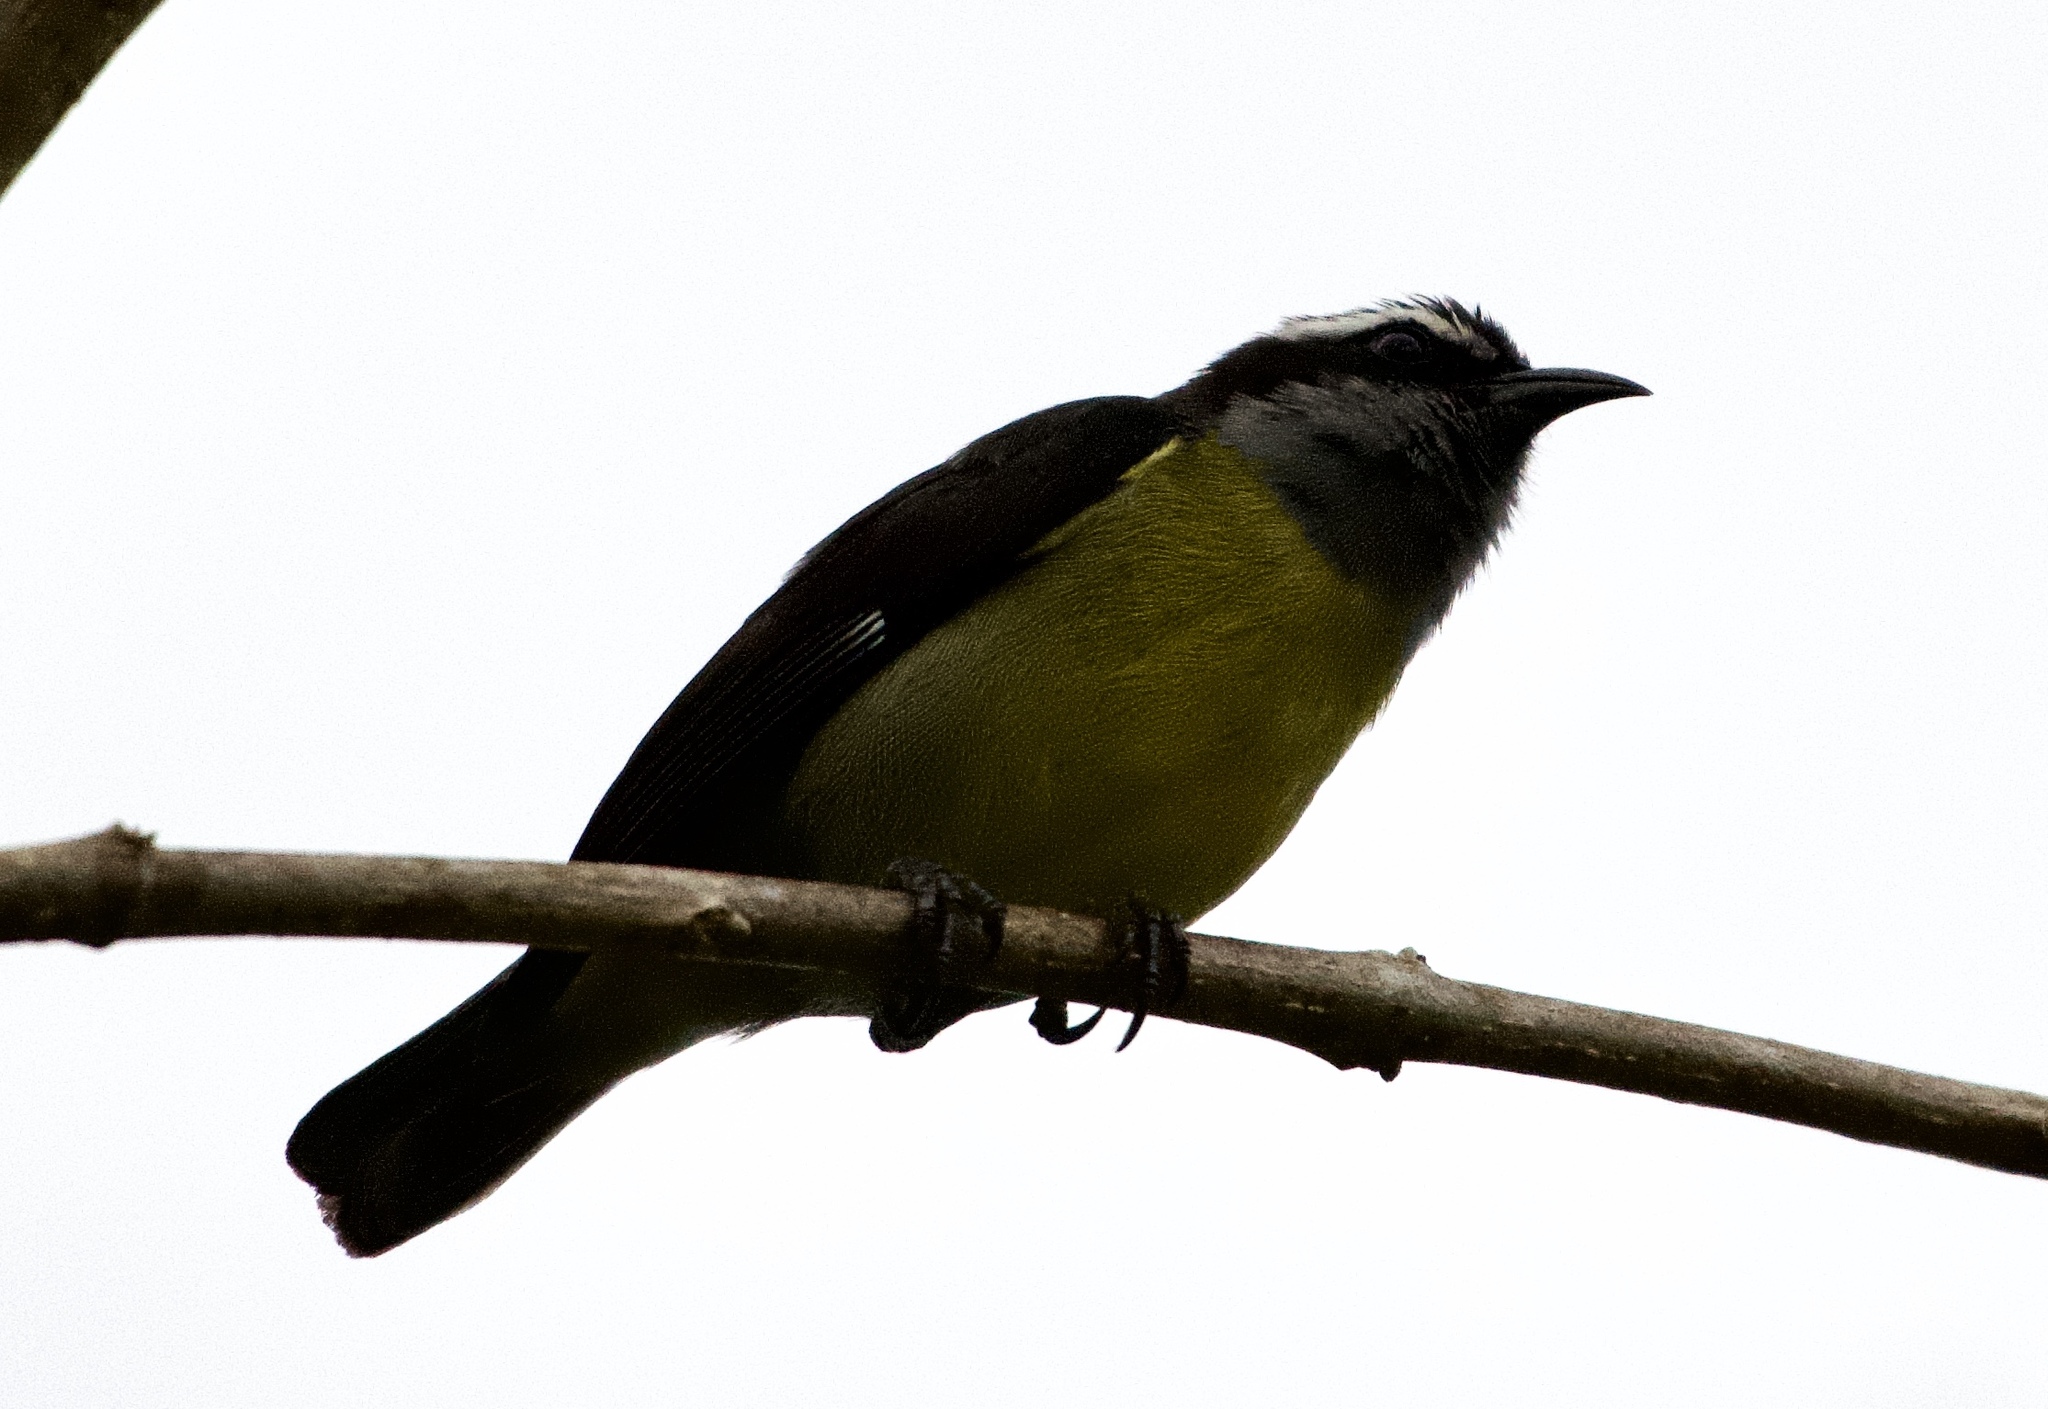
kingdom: Animalia
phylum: Chordata
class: Aves
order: Passeriformes
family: Thraupidae
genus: Coereba
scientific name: Coereba flaveola
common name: Bananaquit
